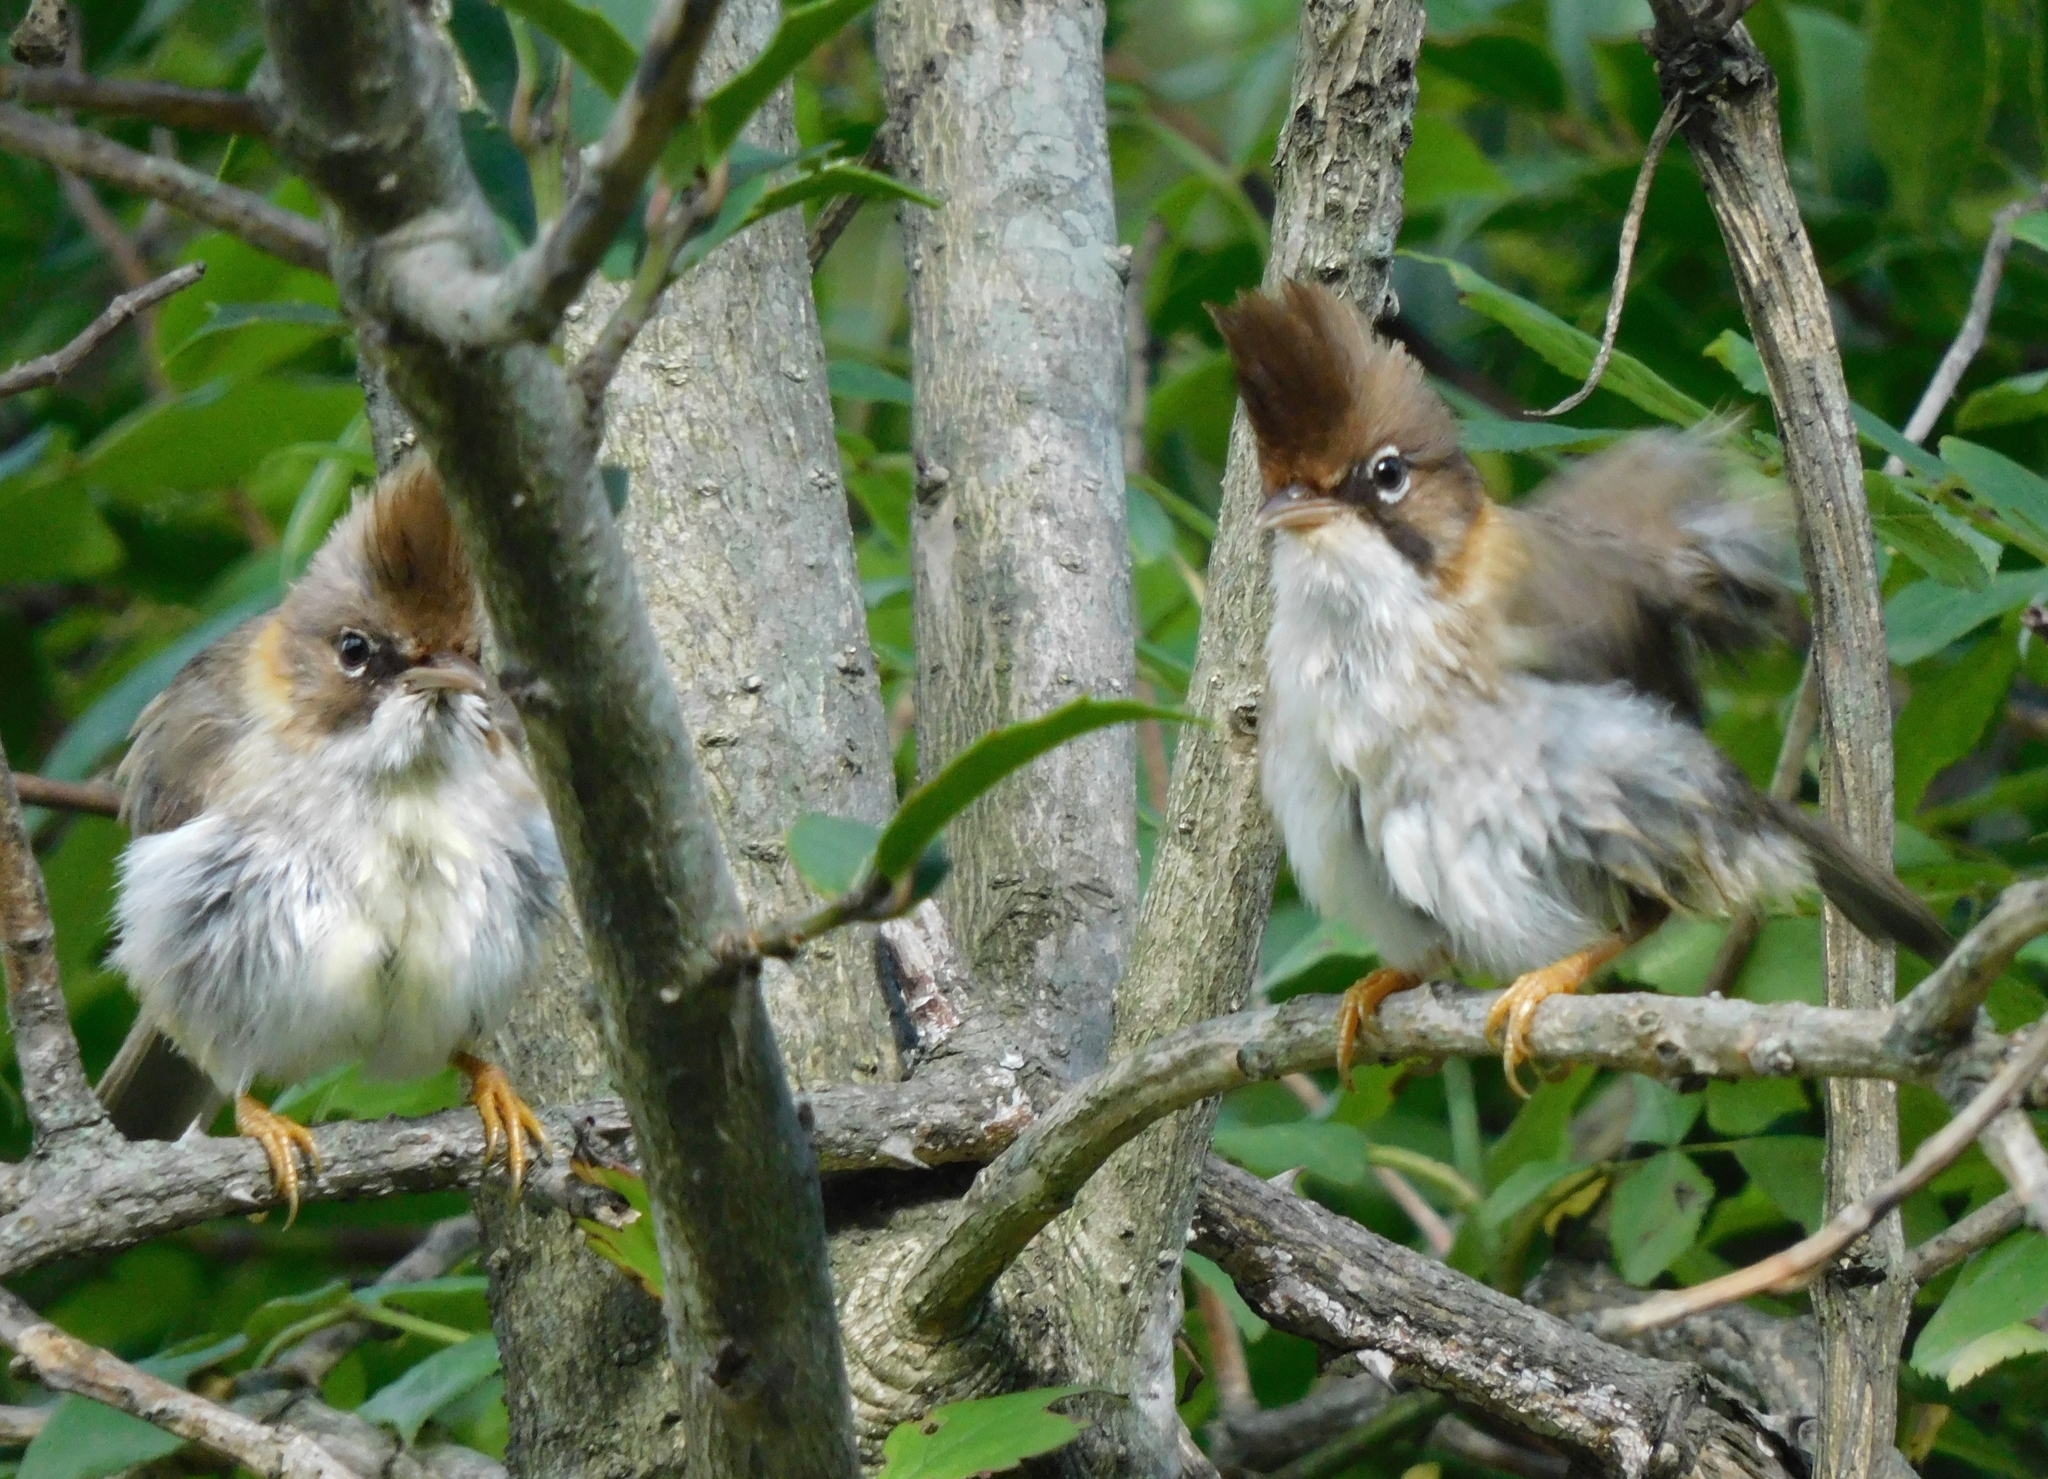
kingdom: Animalia
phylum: Chordata
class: Aves
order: Passeriformes
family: Zosteropidae
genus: Yuhina
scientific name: Yuhina flavicollis
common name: Whiskered yuhina
